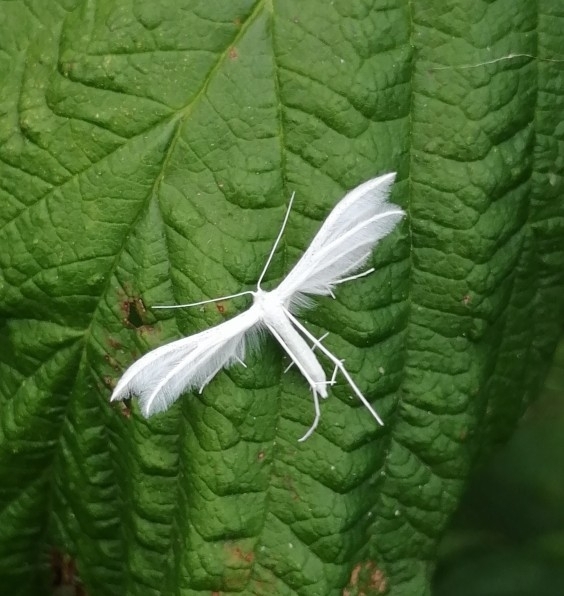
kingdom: Animalia
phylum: Arthropoda
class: Insecta
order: Lepidoptera
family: Pterophoridae
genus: Pterophorus
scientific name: Pterophorus pentadactyla
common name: White plume moth
